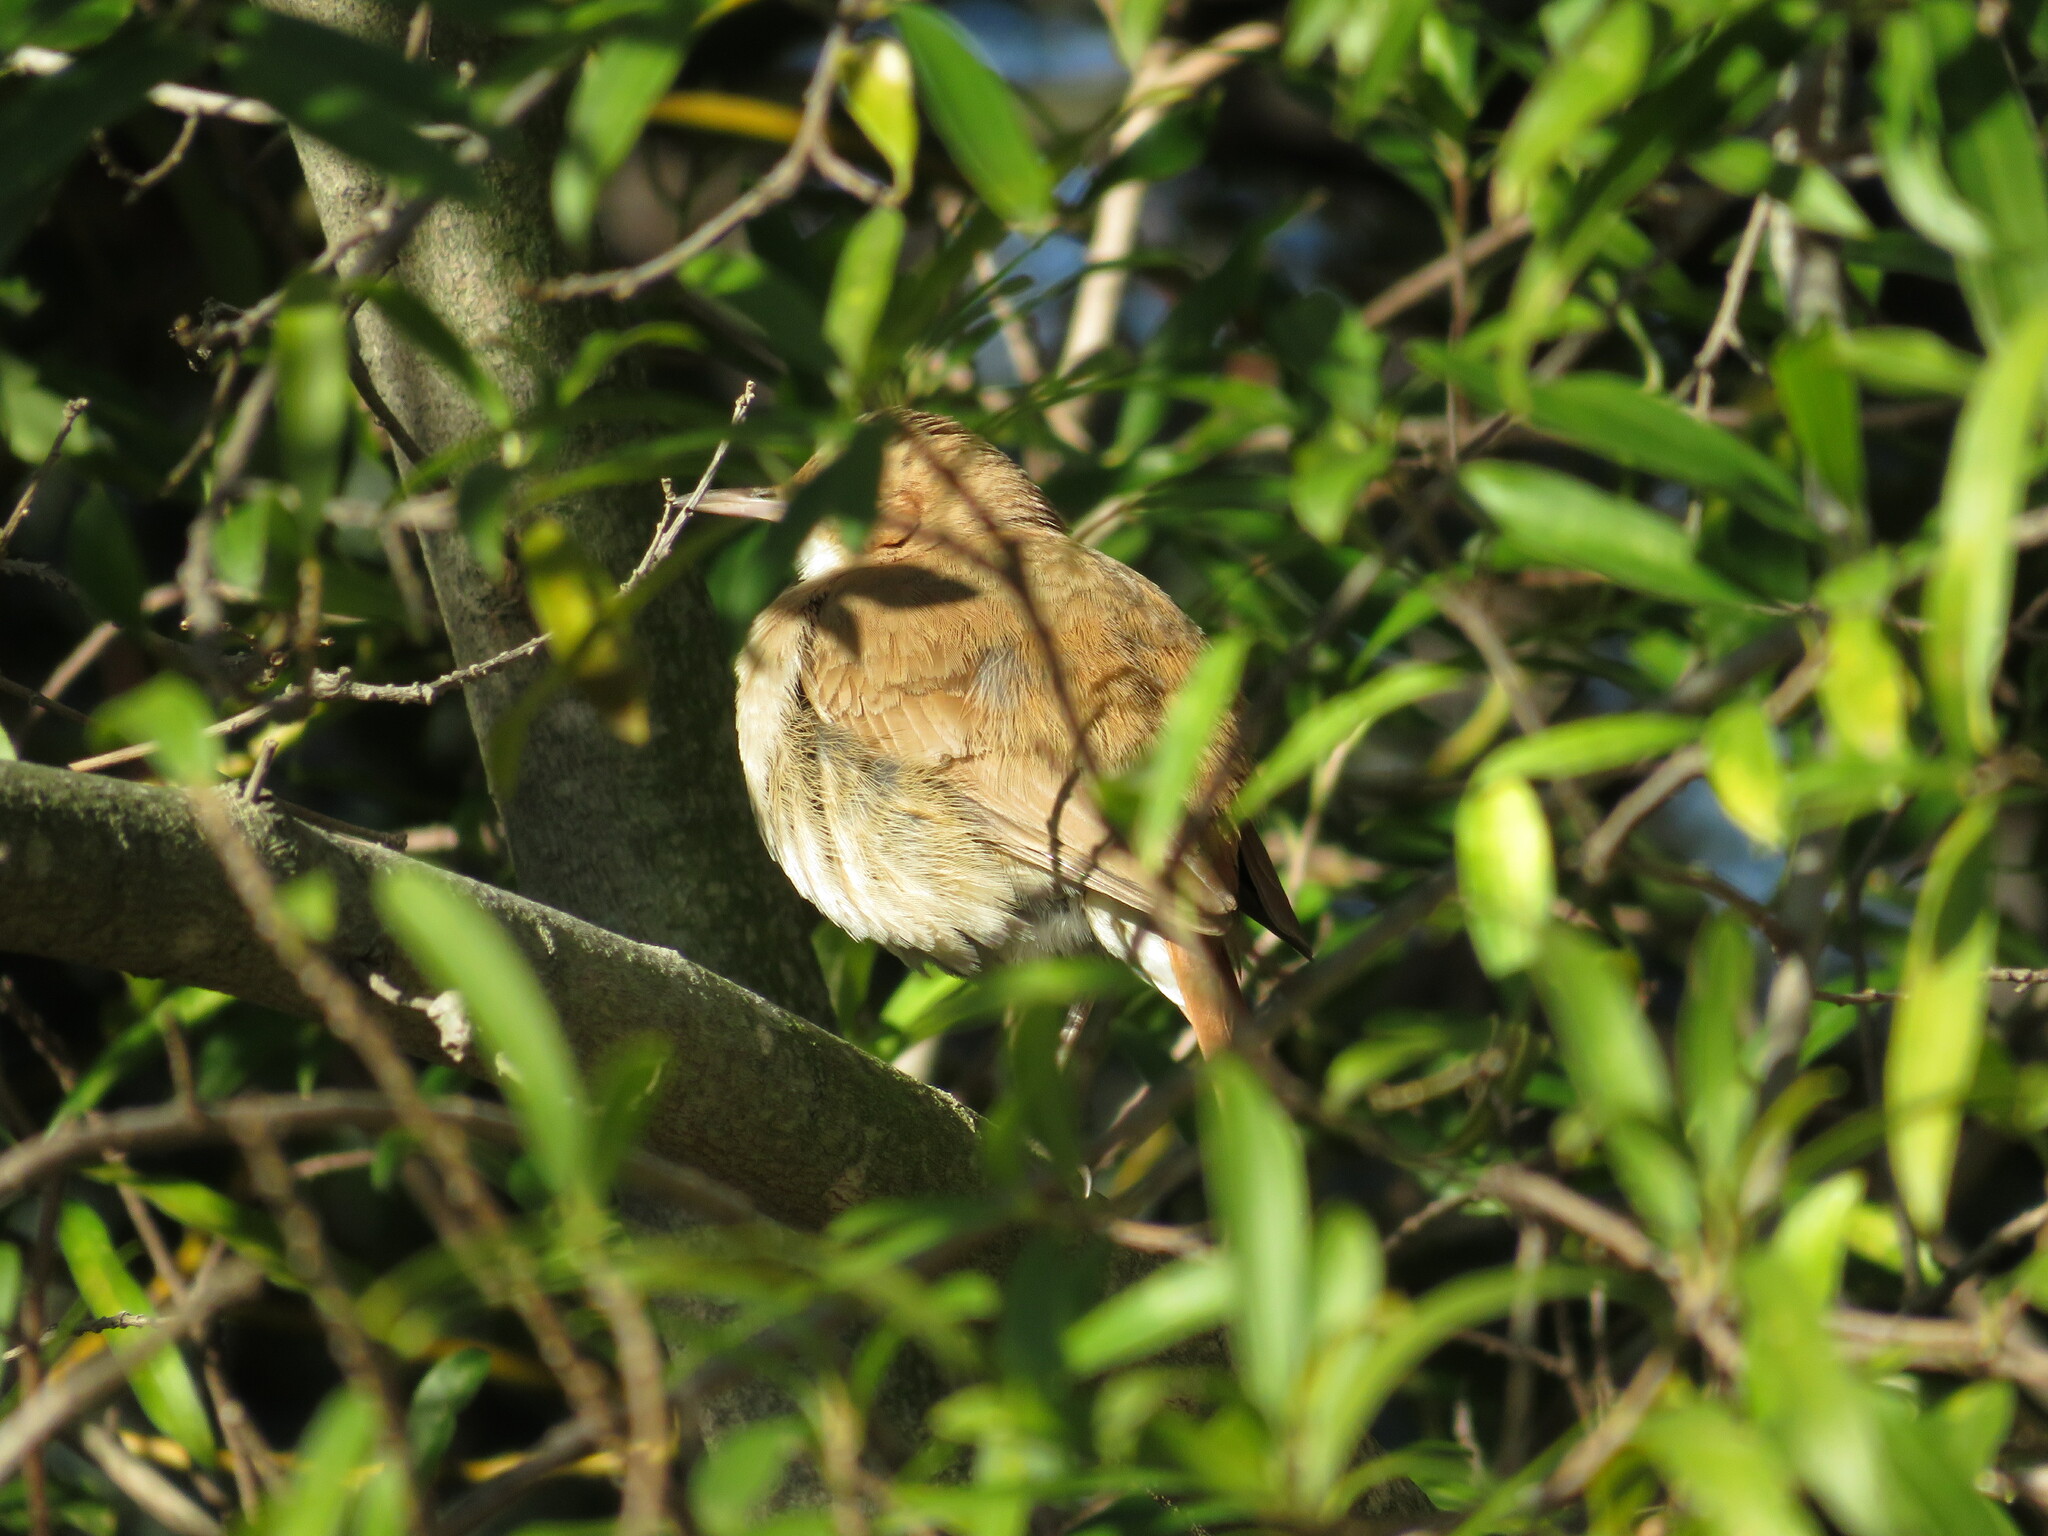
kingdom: Animalia
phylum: Chordata
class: Aves
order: Passeriformes
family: Furnariidae
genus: Furnarius
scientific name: Furnarius rufus
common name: Rufous hornero
